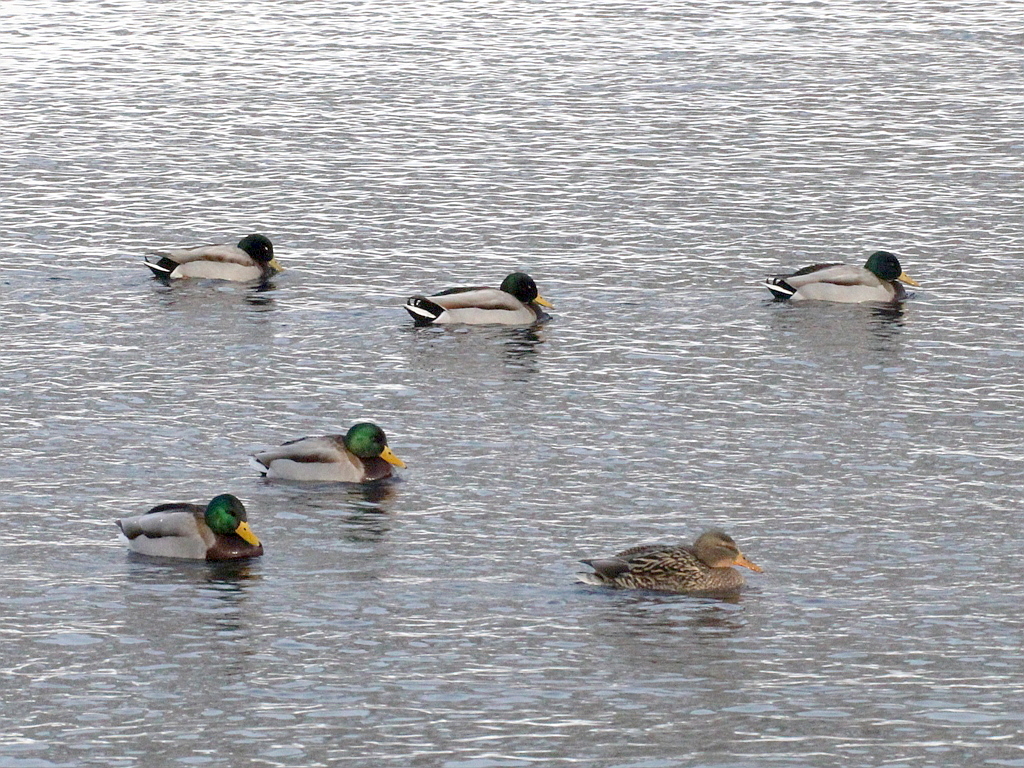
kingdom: Animalia
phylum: Chordata
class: Aves
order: Anseriformes
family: Anatidae
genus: Anas
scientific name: Anas platyrhynchos
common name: Mallard
